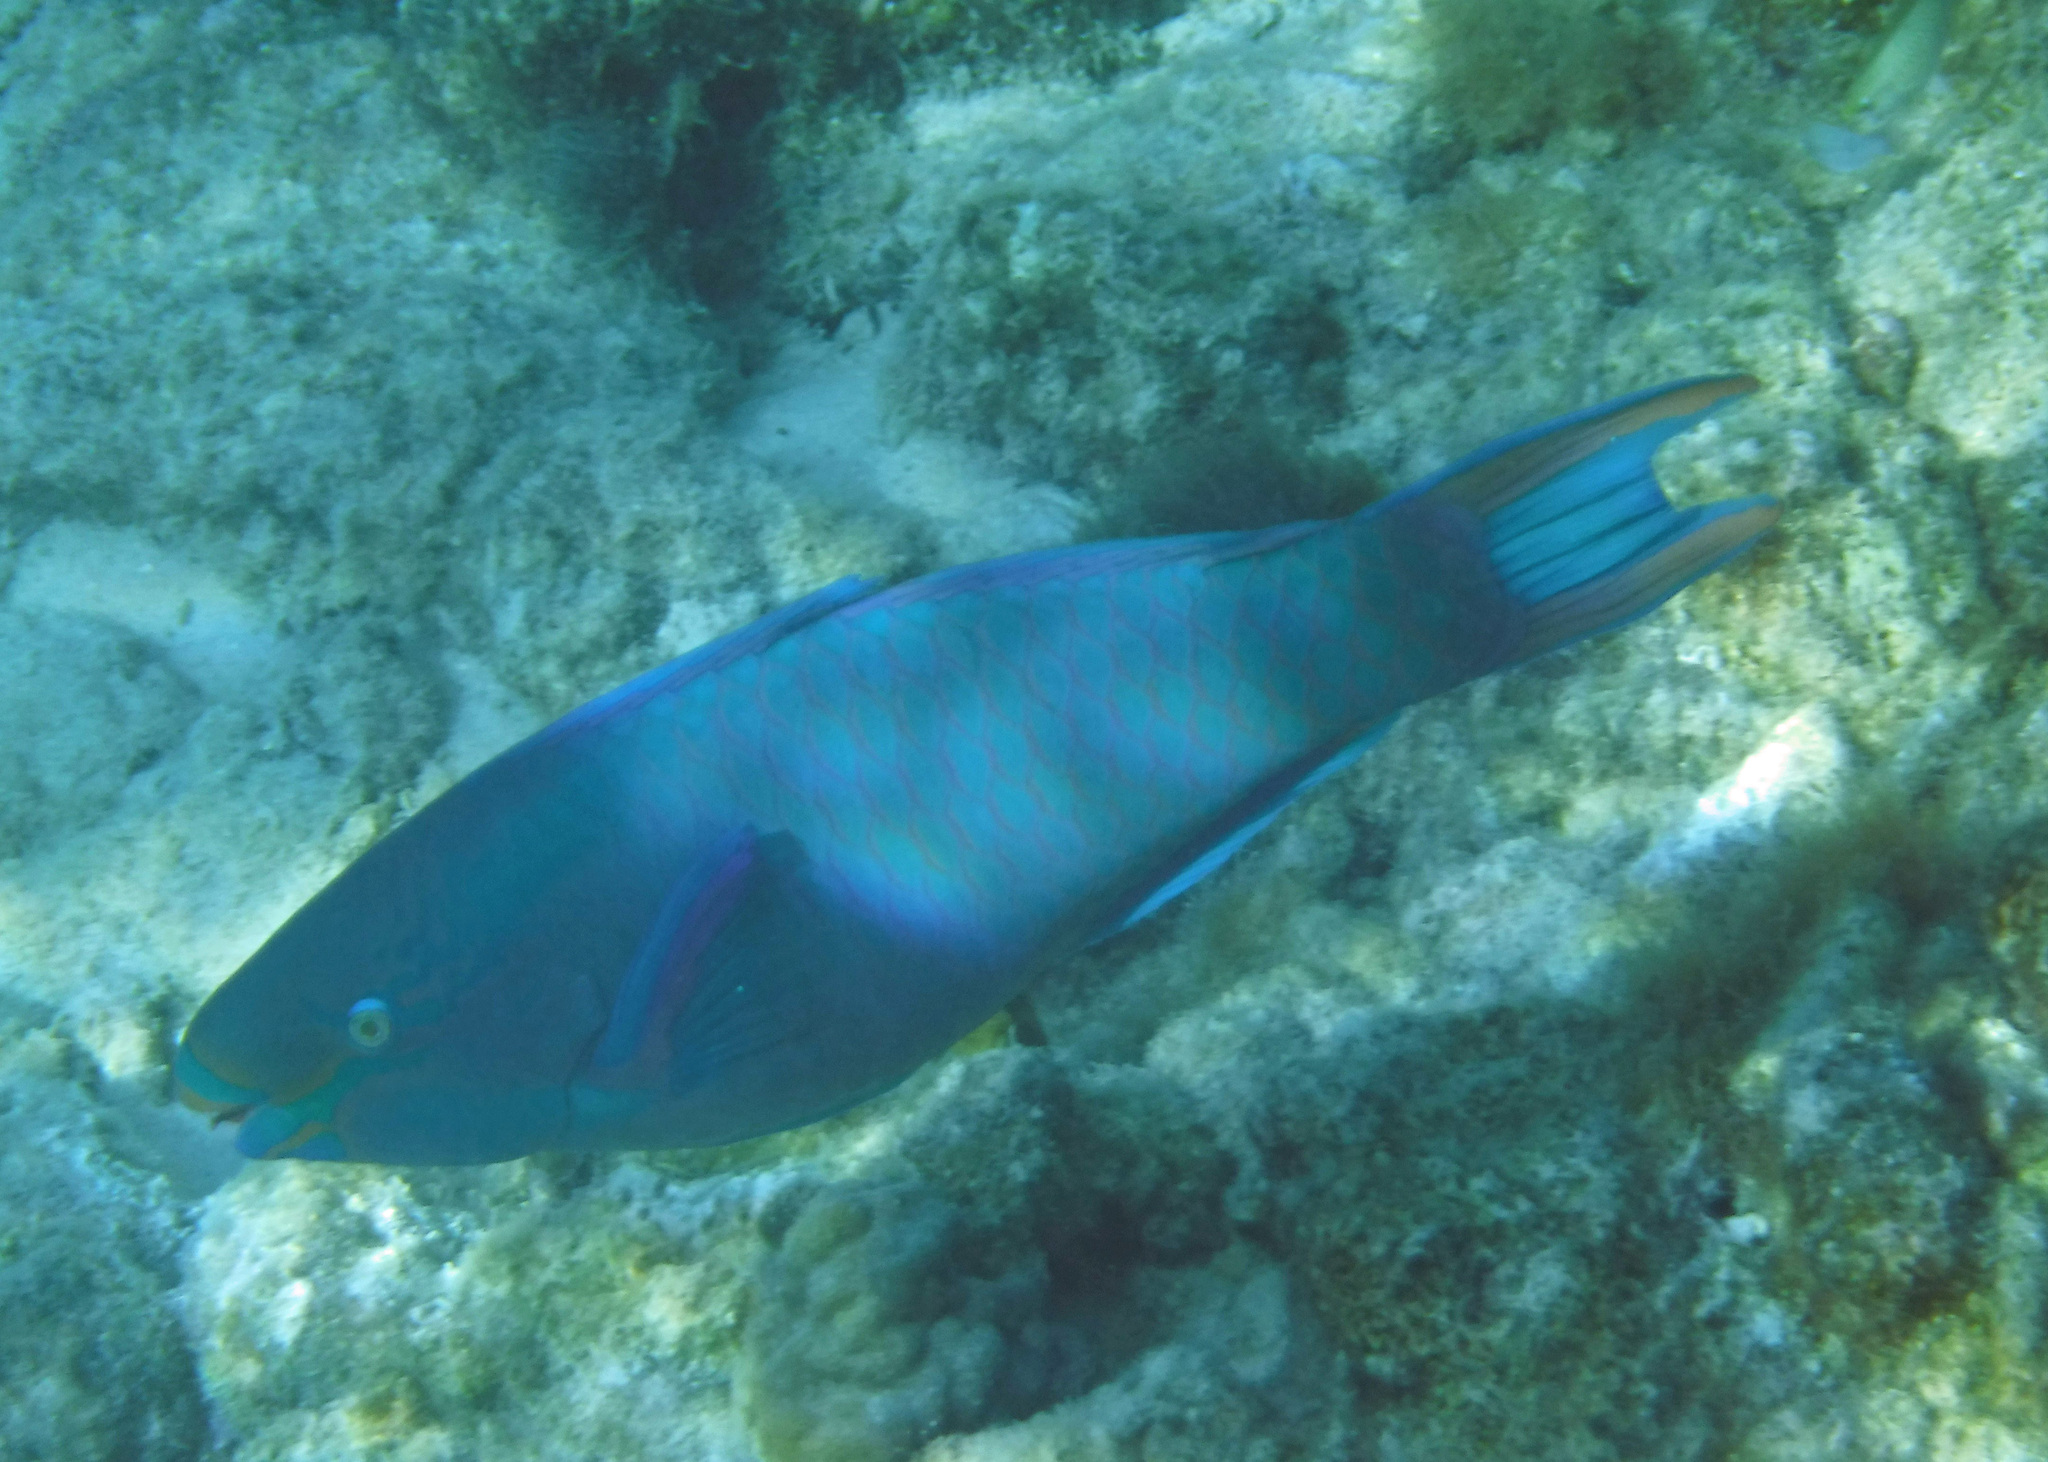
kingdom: Animalia
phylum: Chordata
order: Perciformes
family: Scaridae
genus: Scarus
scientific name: Scarus vetula
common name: Queen parrotfish
